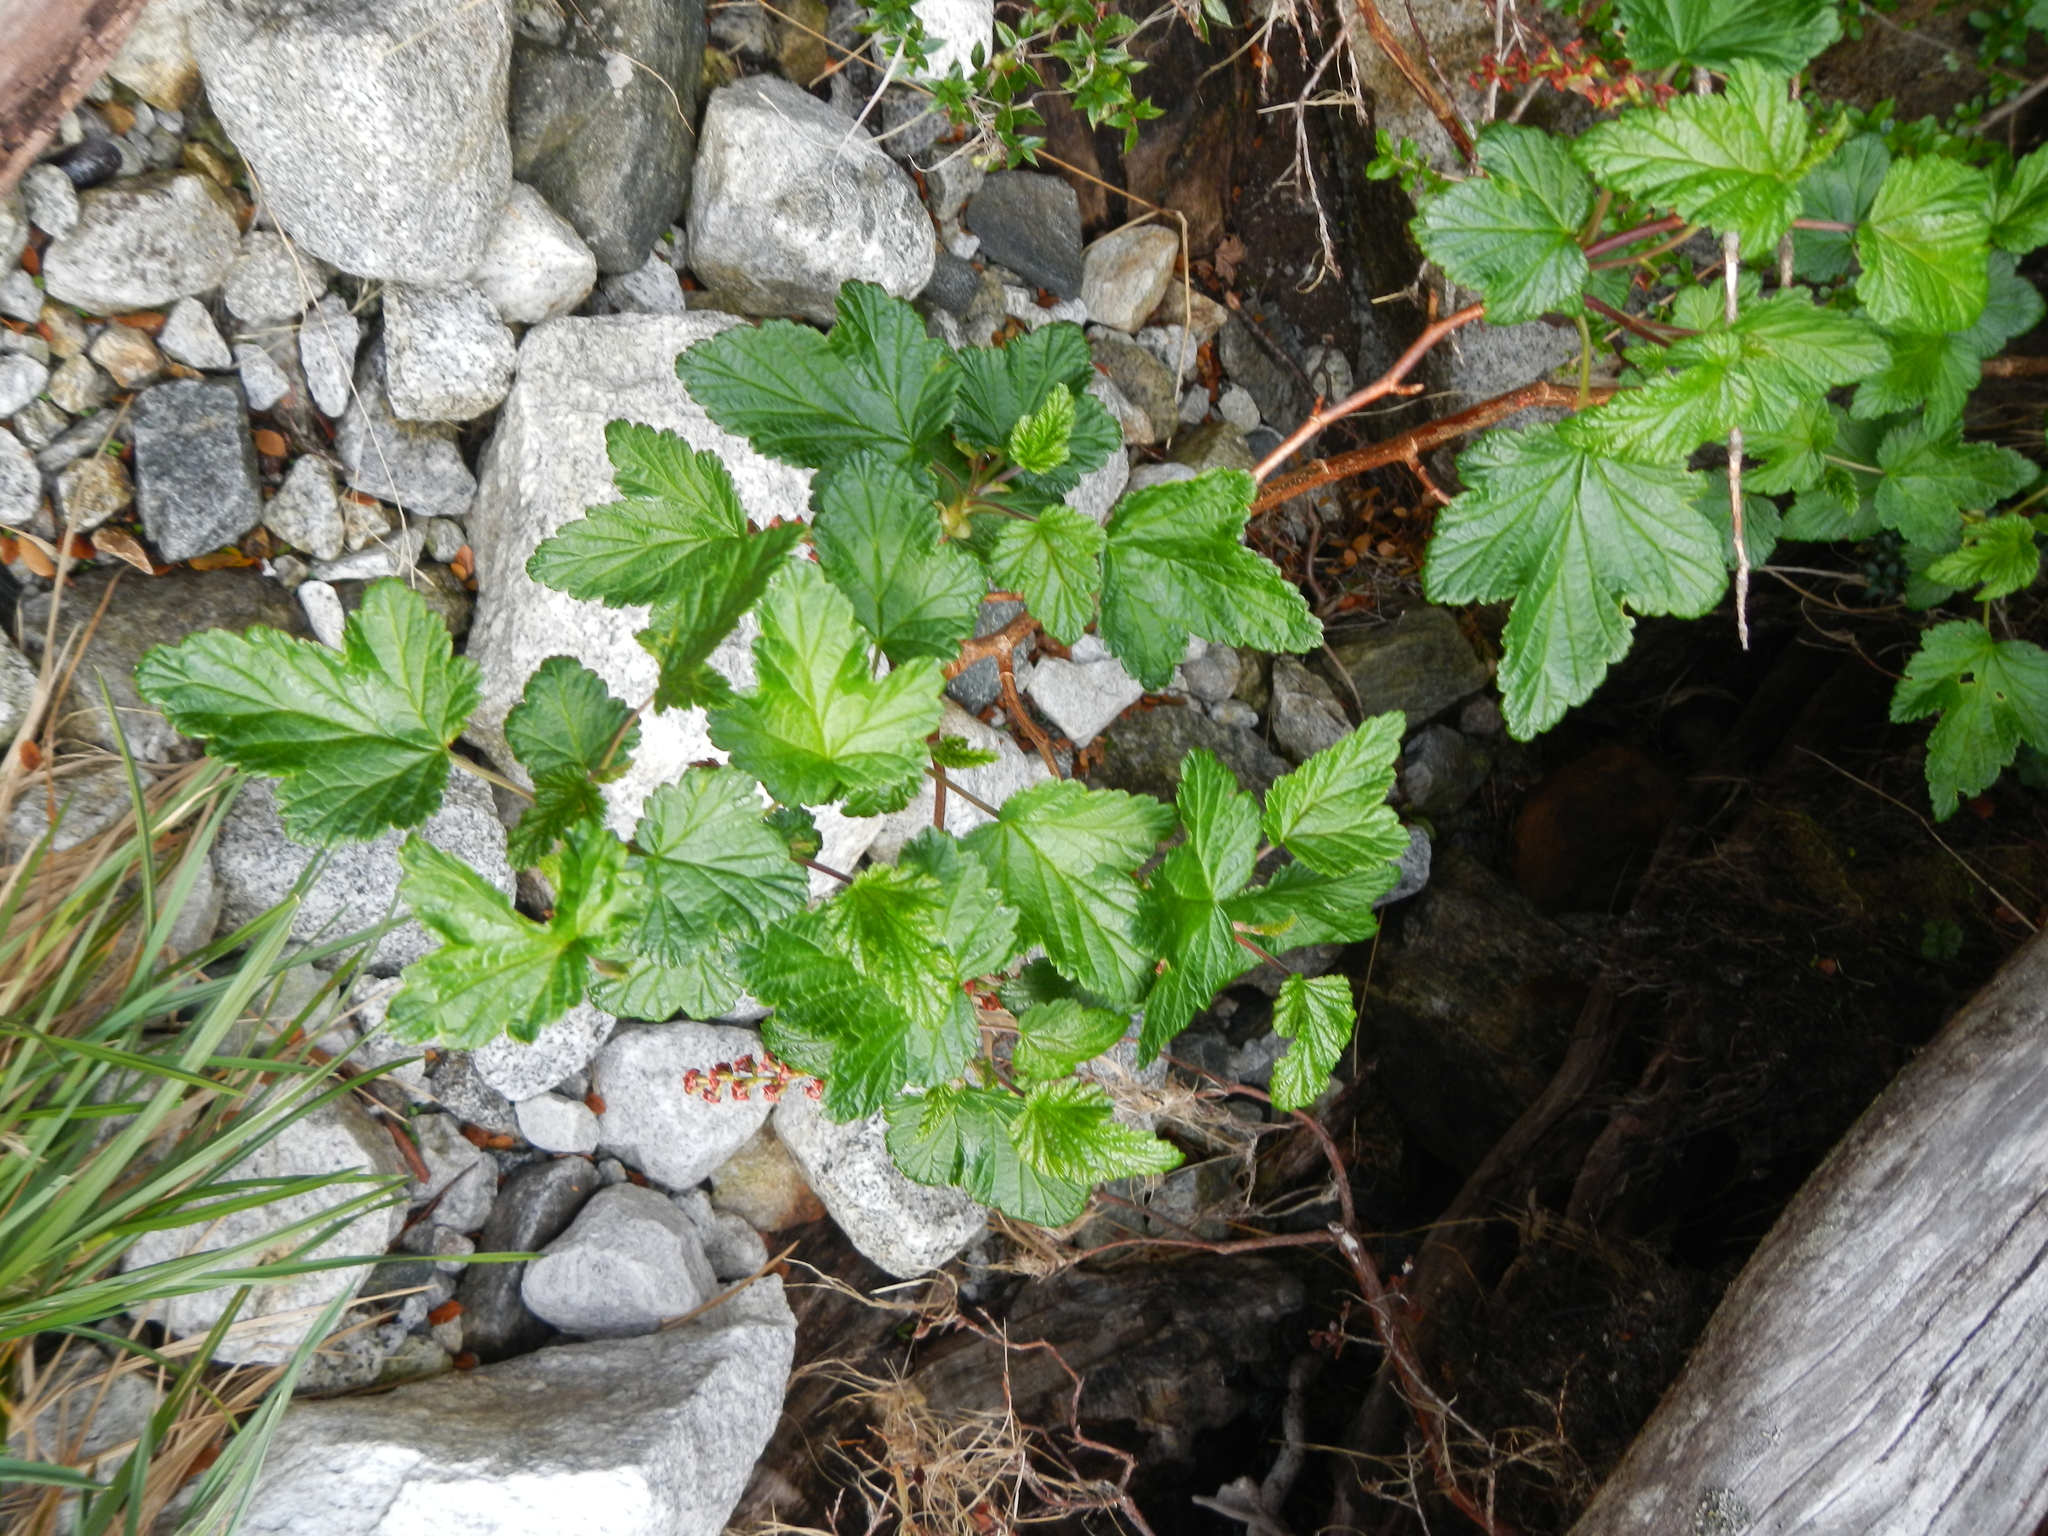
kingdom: Plantae
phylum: Tracheophyta
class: Magnoliopsida
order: Saxifragales
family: Grossulariaceae
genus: Ribes
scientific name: Ribes magellanicum
